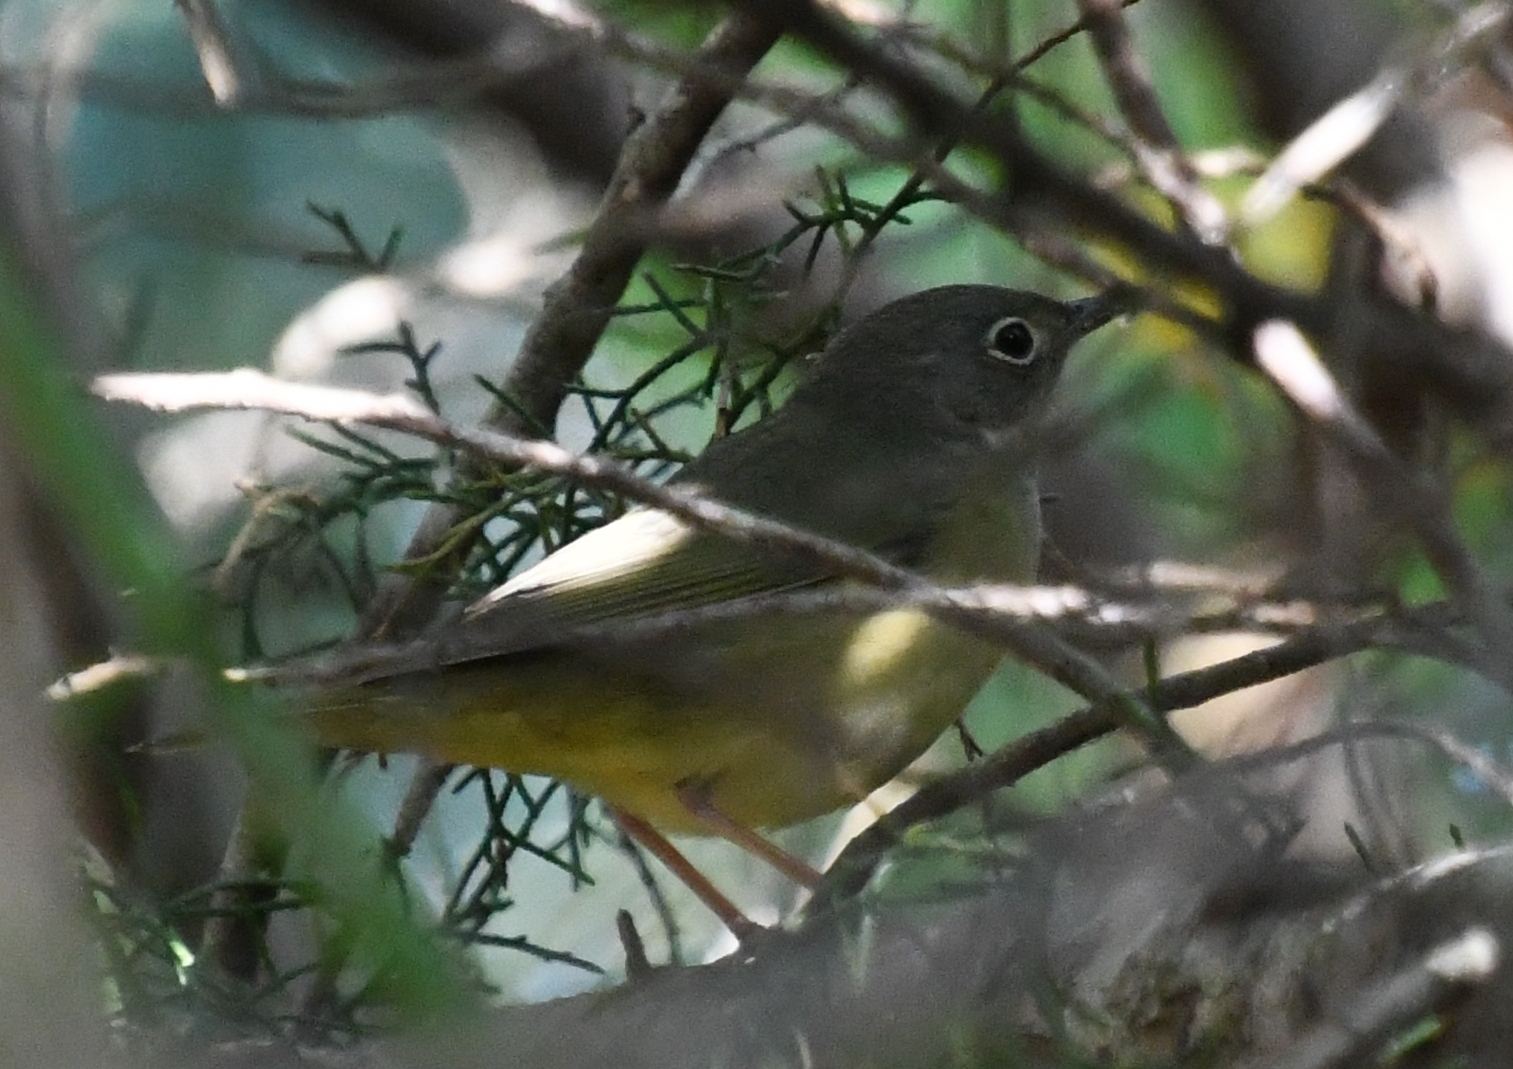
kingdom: Animalia
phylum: Chordata
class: Aves
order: Passeriformes
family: Parulidae
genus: Oporornis
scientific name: Oporornis agilis
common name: Connecticut warbler
